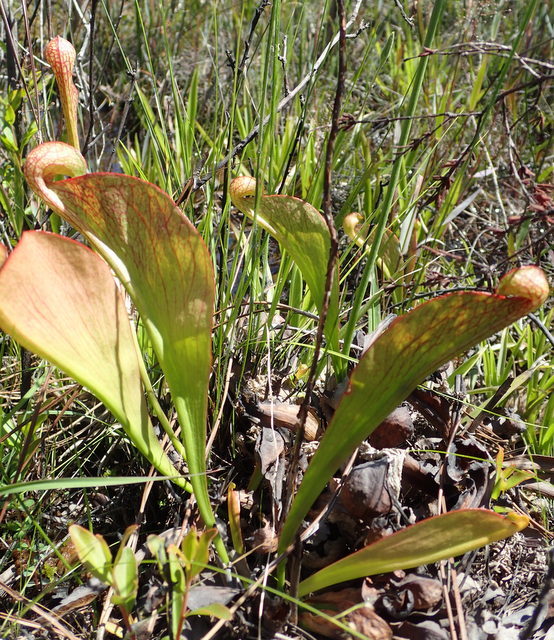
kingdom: Plantae
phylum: Tracheophyta
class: Magnoliopsida
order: Ericales
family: Sarraceniaceae
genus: Sarracenia
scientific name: Sarracenia psittacina
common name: Parrot pitcherplant
